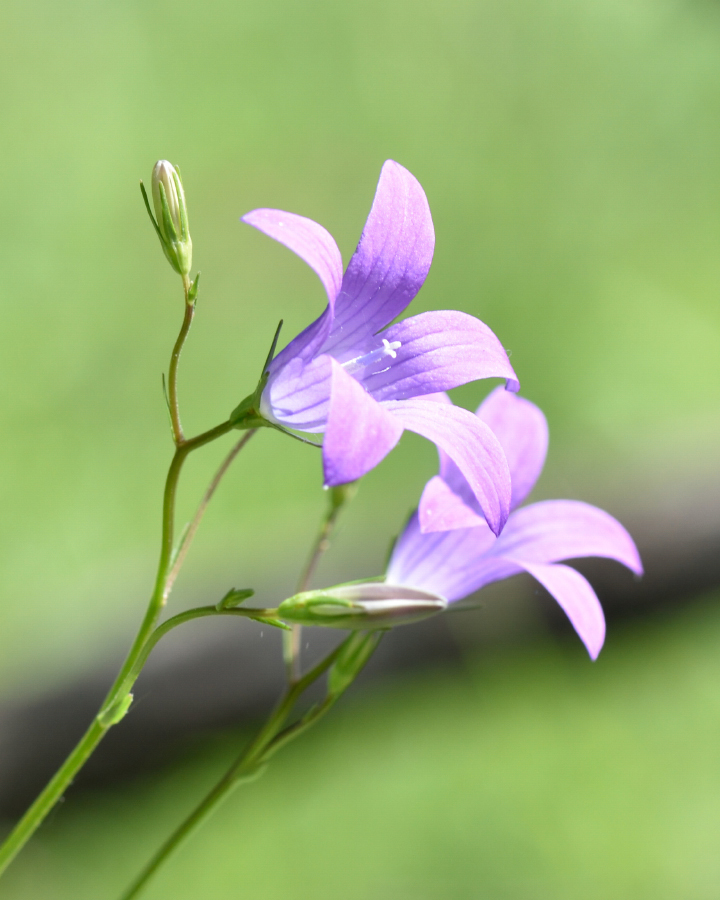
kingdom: Plantae
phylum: Tracheophyta
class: Magnoliopsida
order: Asterales
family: Campanulaceae
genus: Campanula
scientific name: Campanula patula
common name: Spreading bellflower
